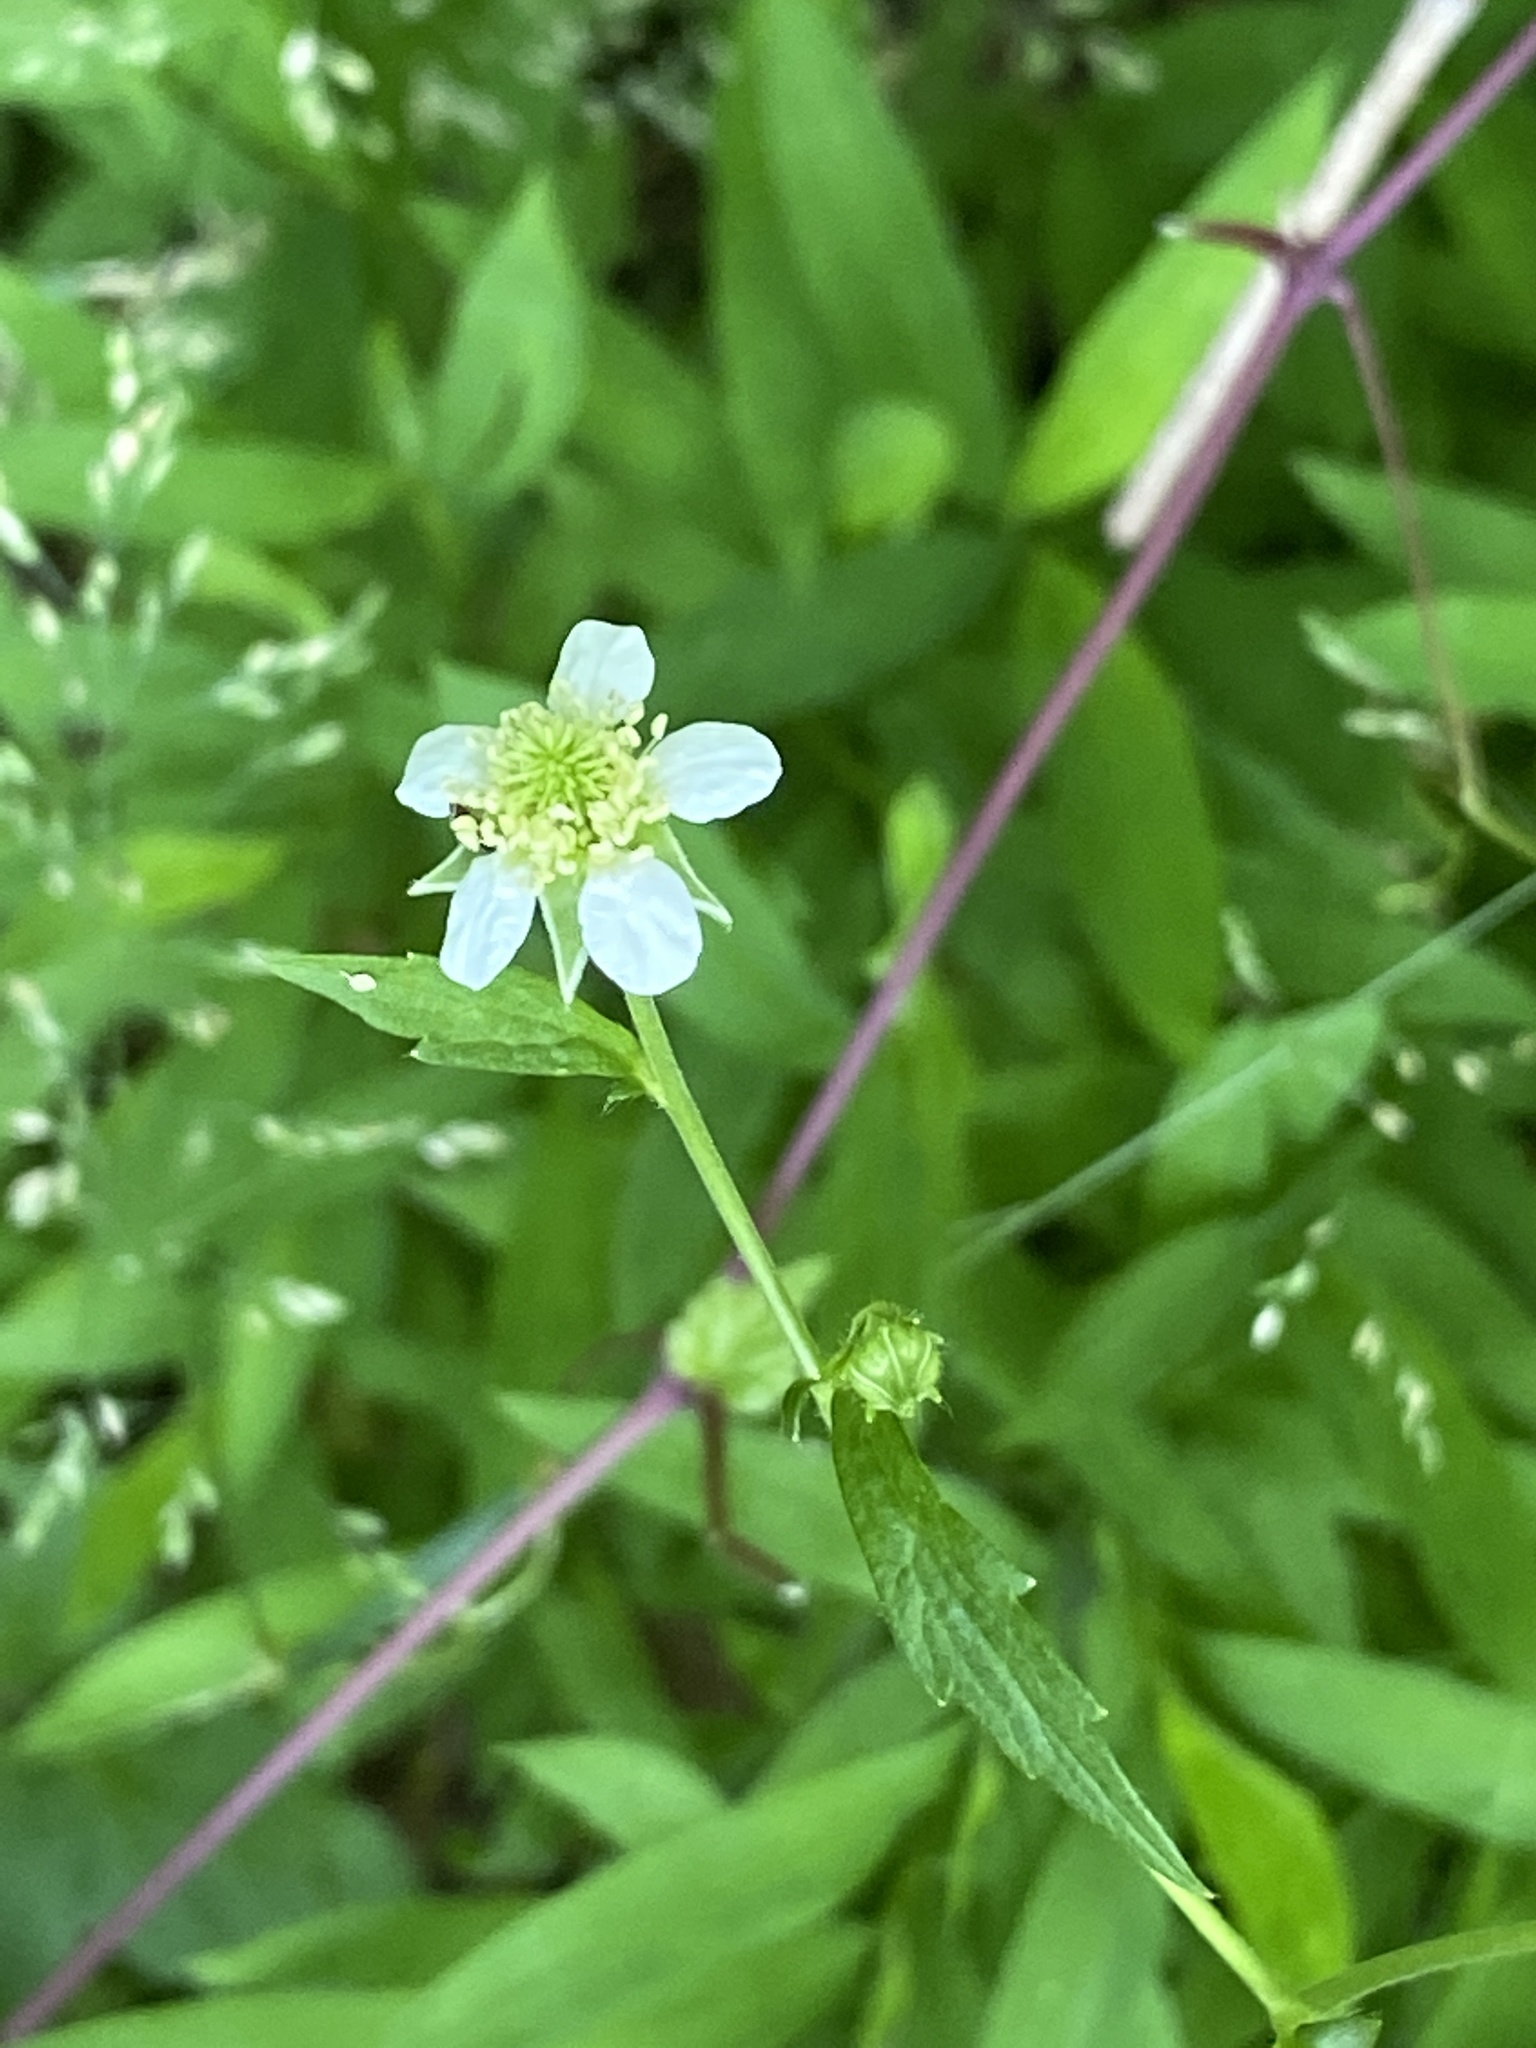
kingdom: Plantae
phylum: Tracheophyta
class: Magnoliopsida
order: Rosales
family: Rosaceae
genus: Geum
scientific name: Geum canadense
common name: White avens
